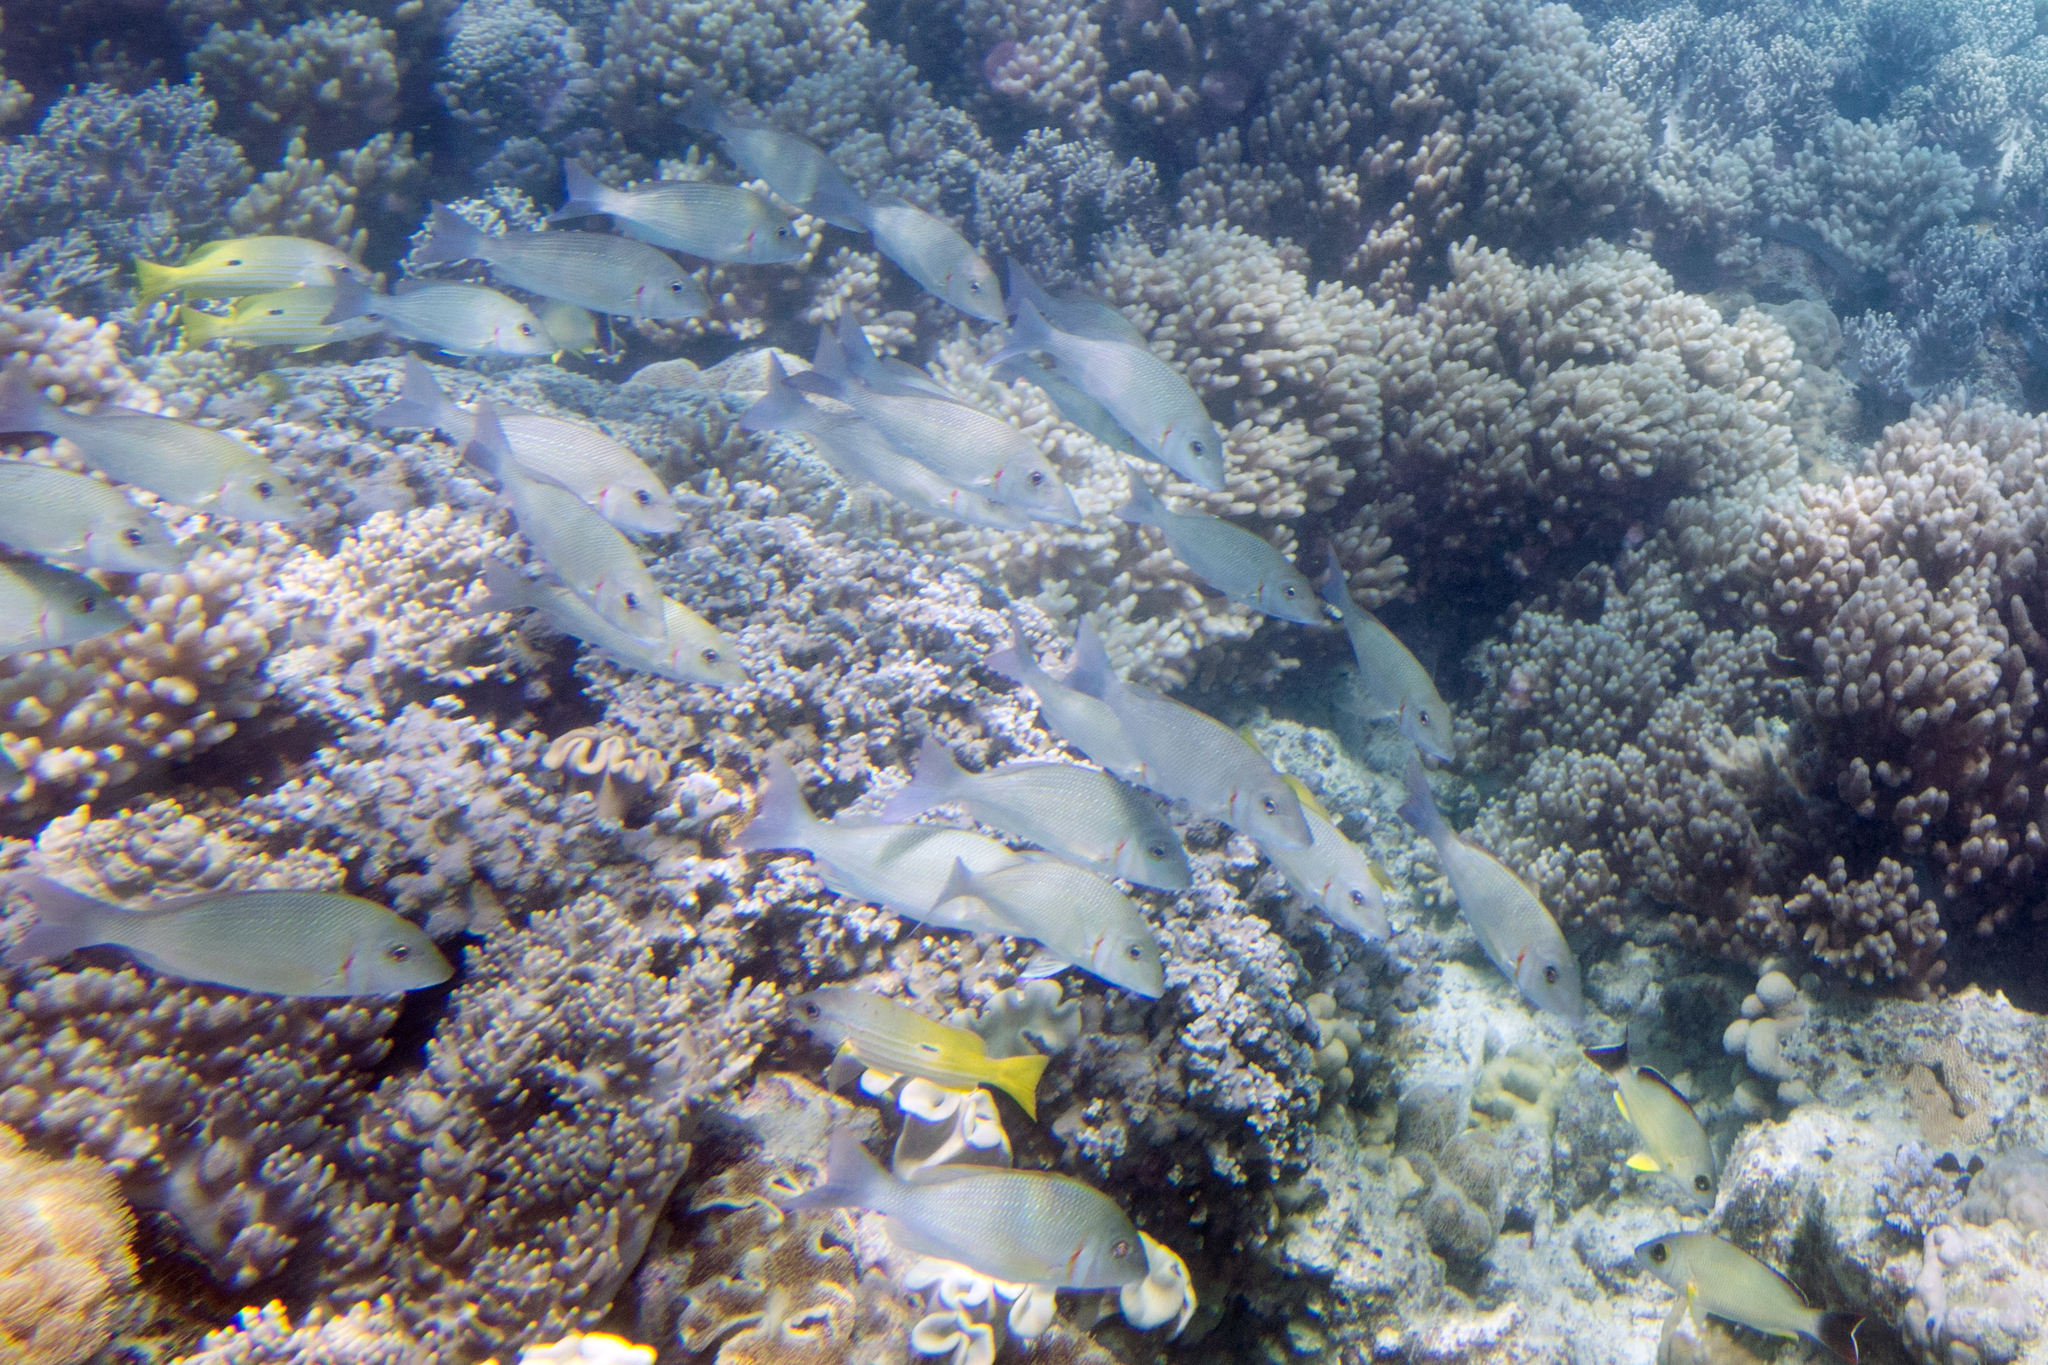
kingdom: Animalia
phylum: Chordata
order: Perciformes
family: Lethrinidae
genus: Lethrinus
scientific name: Lethrinus lentjan
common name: Redspot emperor
